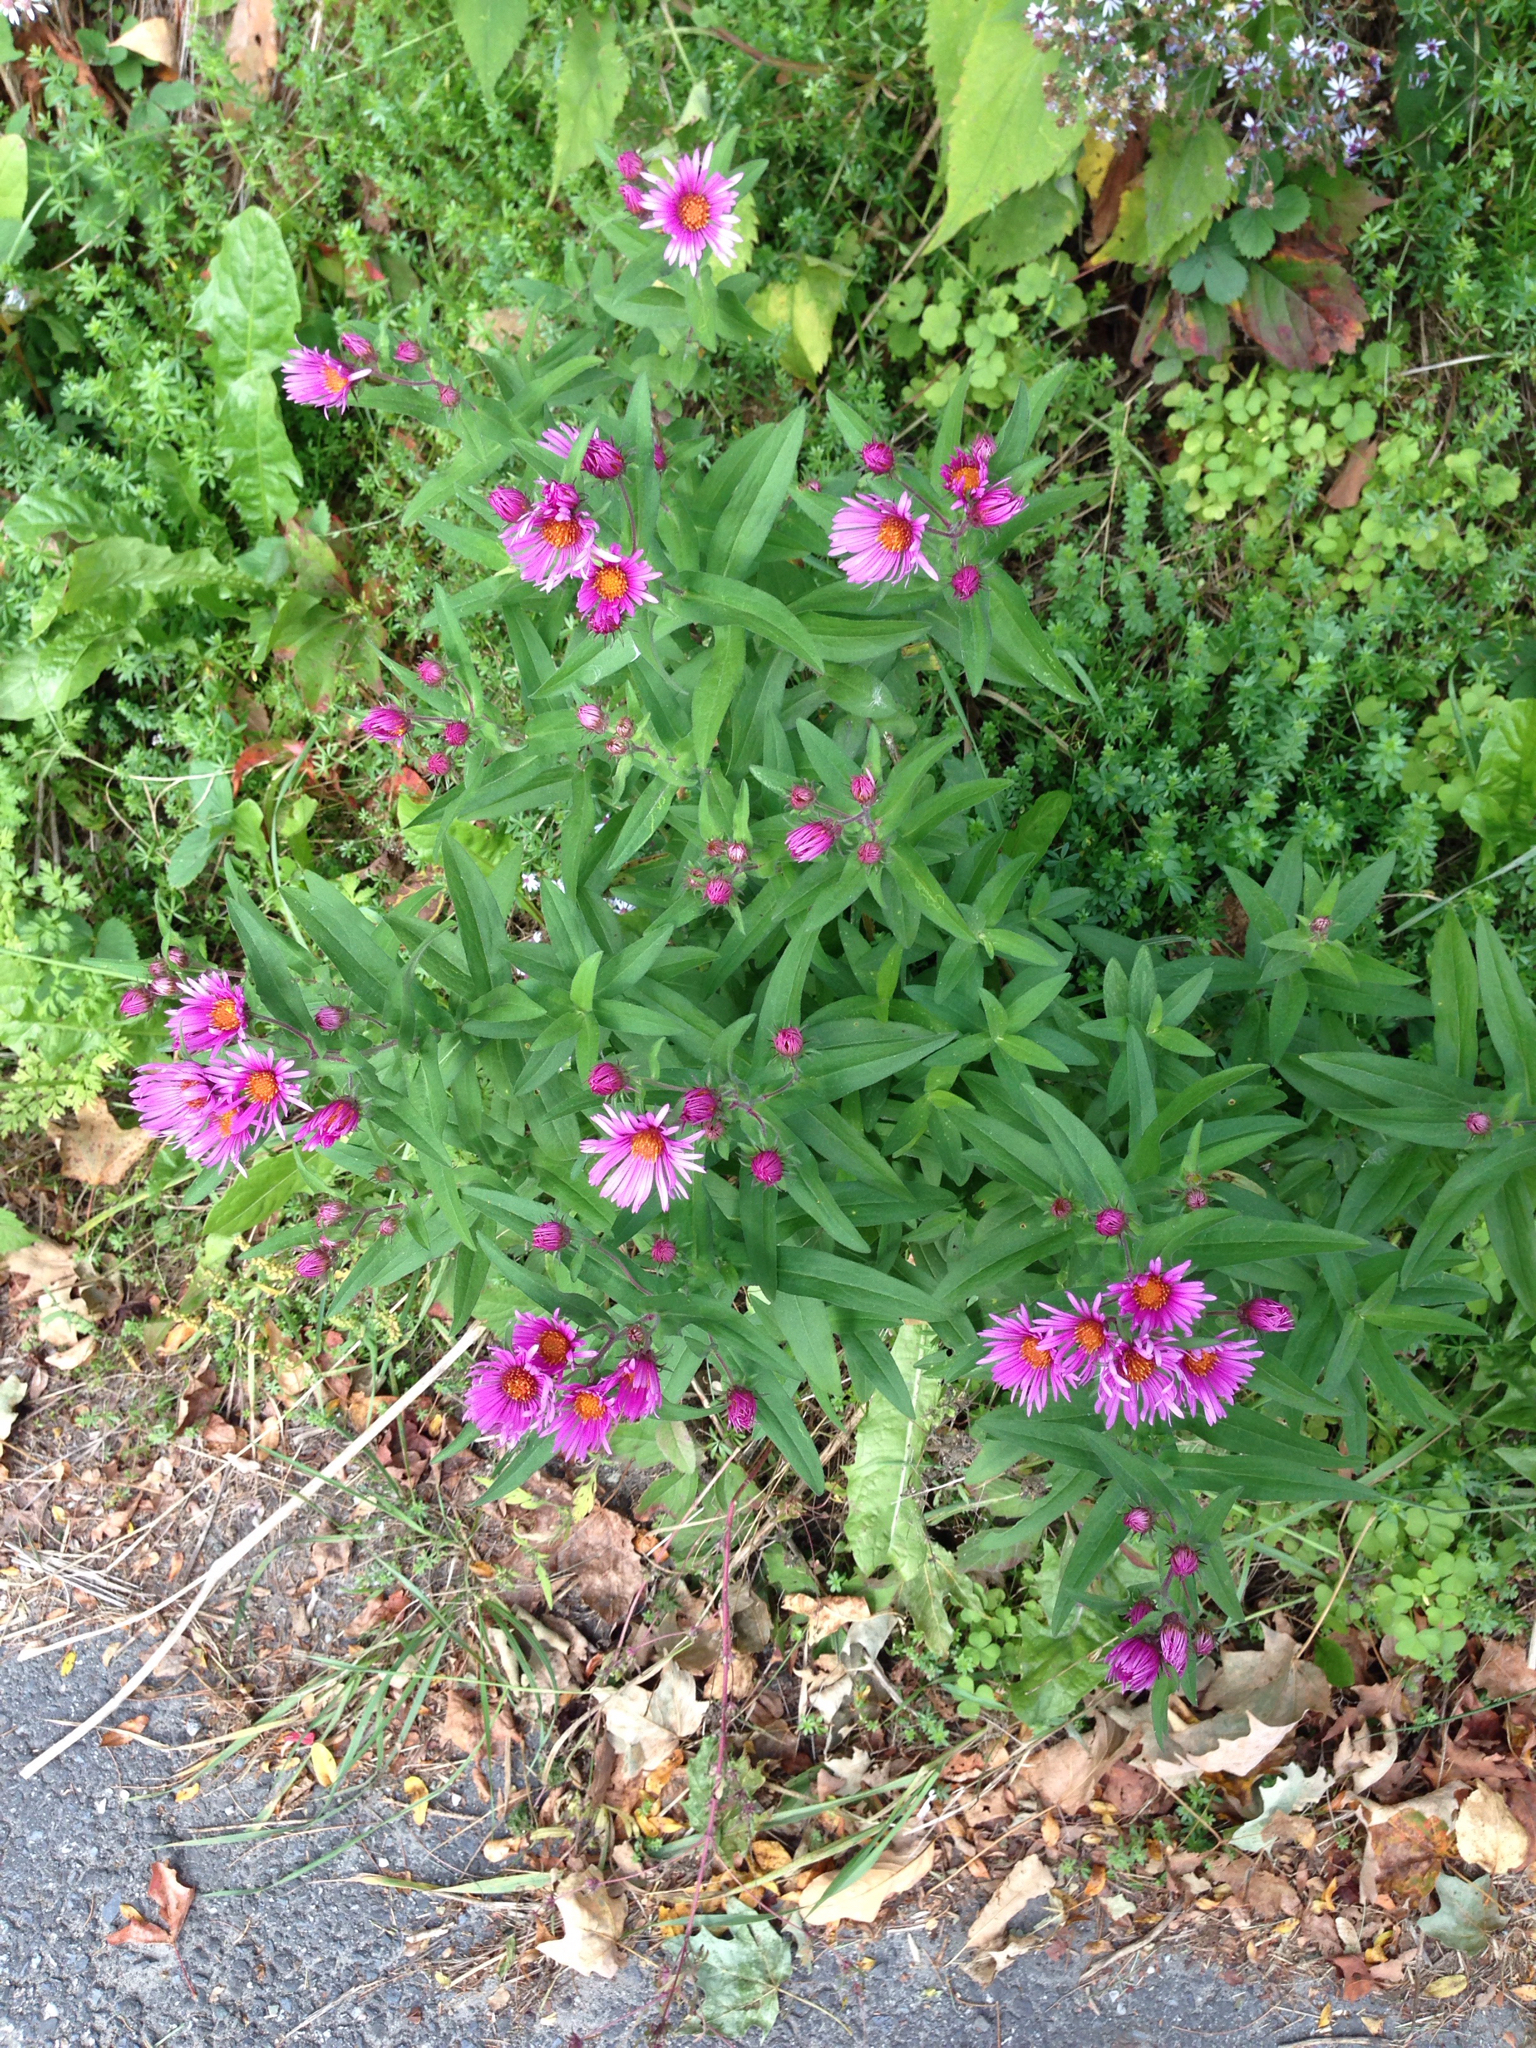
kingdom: Plantae
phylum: Tracheophyta
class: Magnoliopsida
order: Asterales
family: Asteraceae
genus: Symphyotrichum
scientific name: Symphyotrichum novae-angliae
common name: Michaelmas daisy
